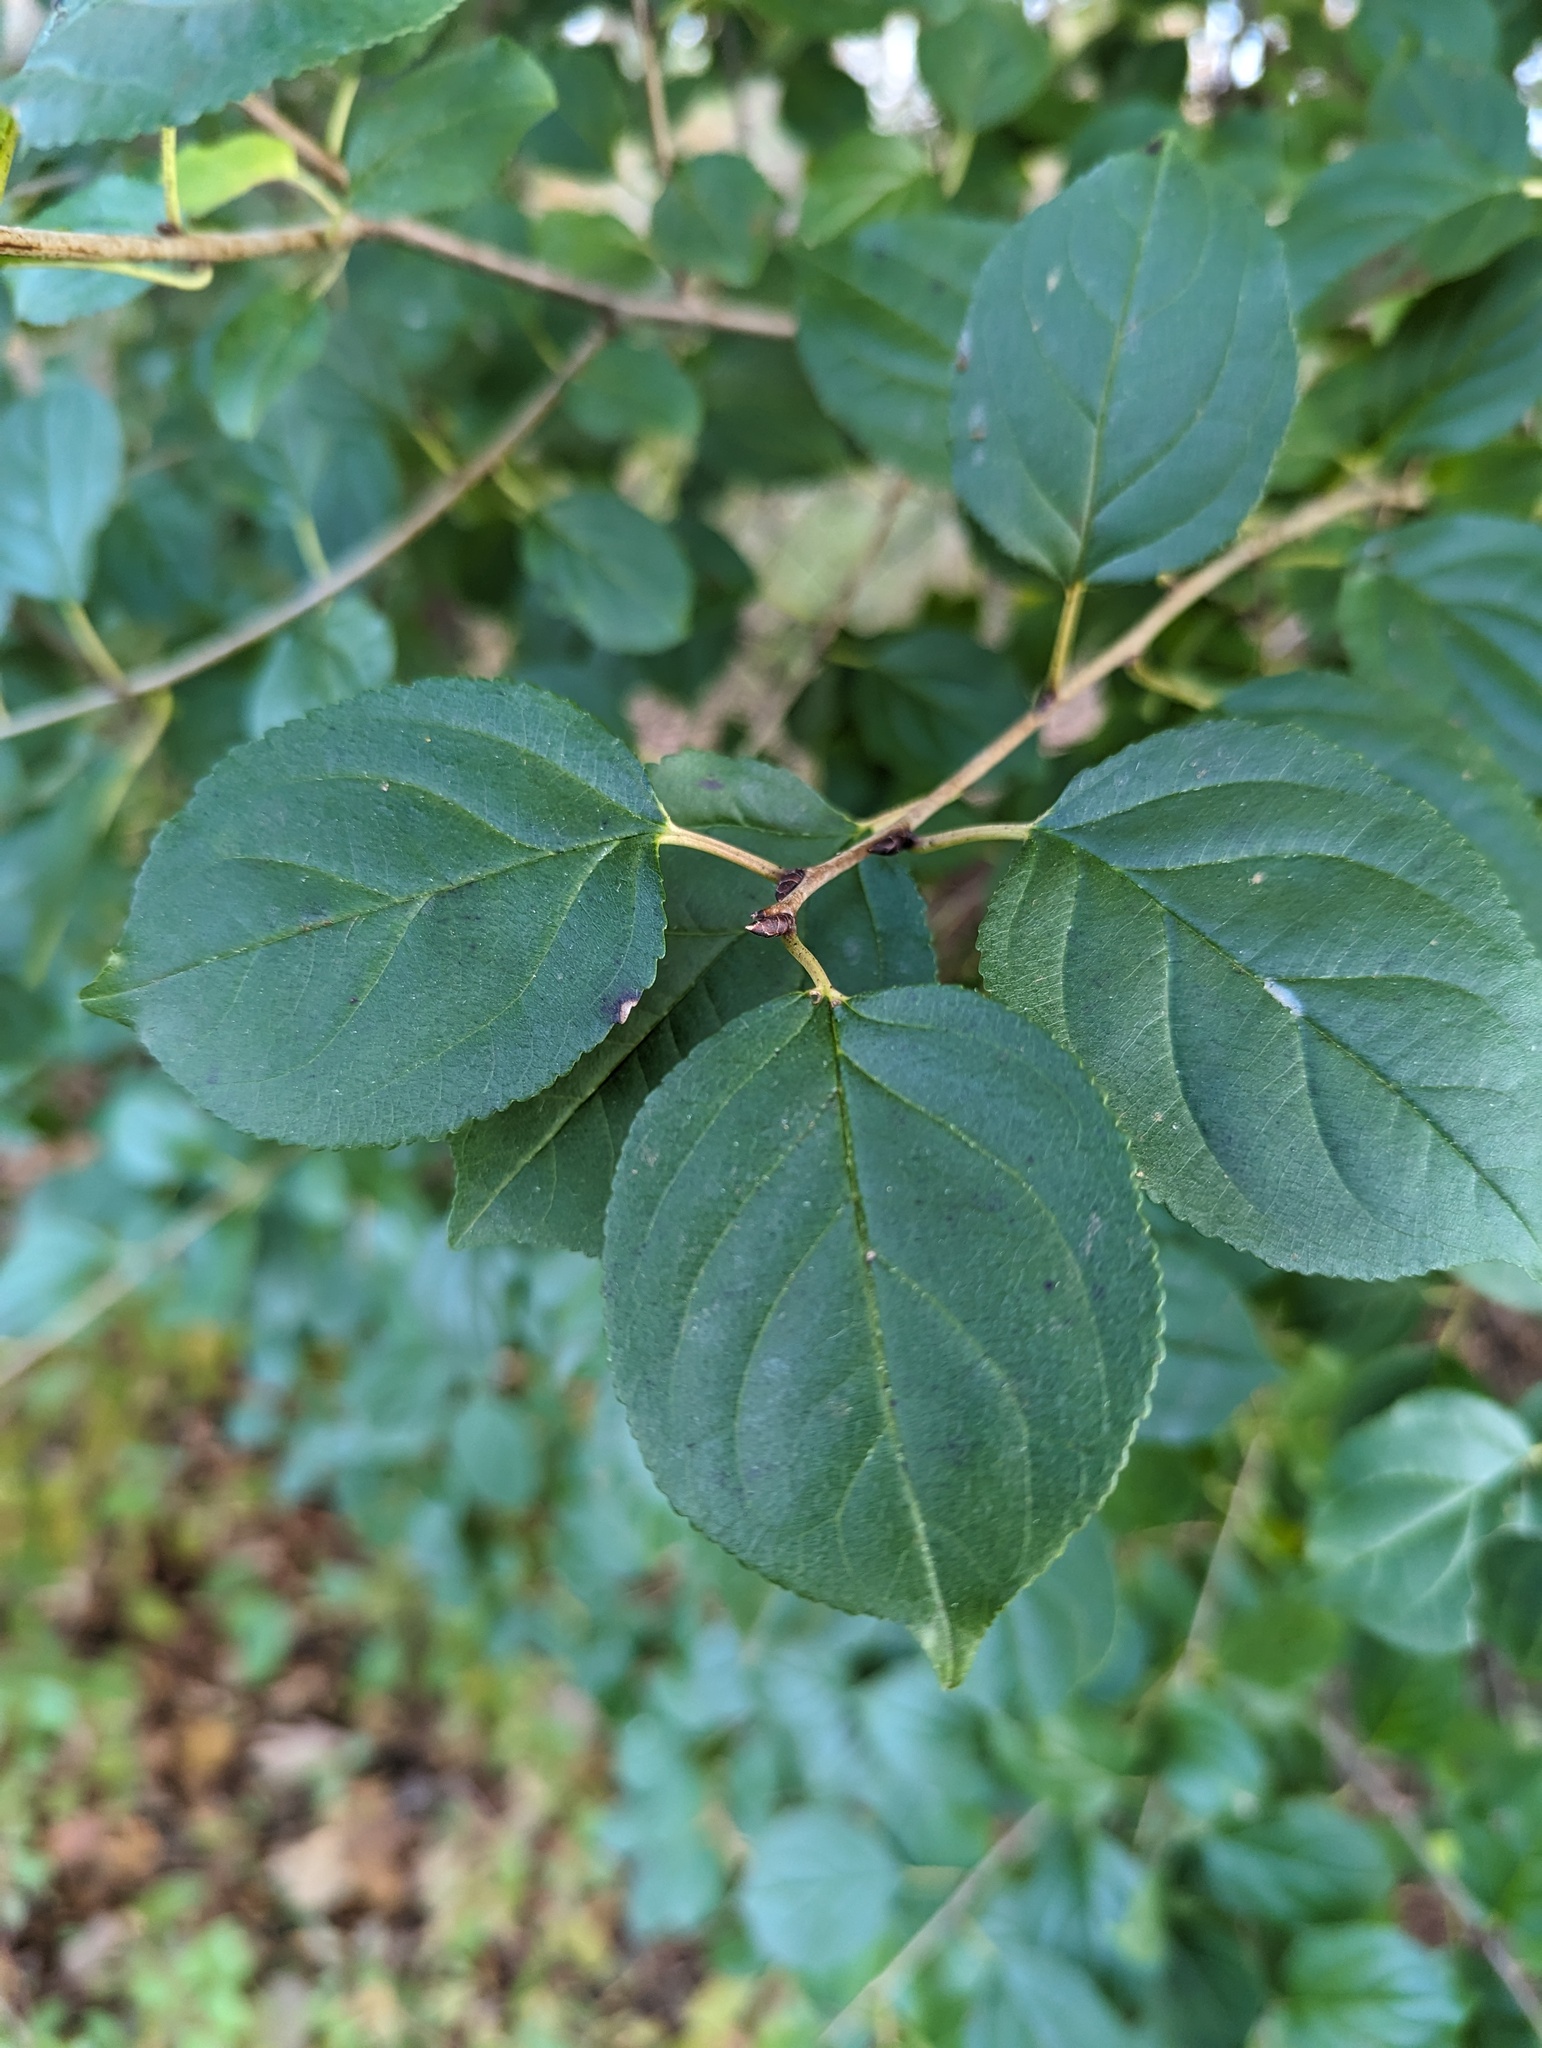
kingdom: Plantae
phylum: Tracheophyta
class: Magnoliopsida
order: Rosales
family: Rhamnaceae
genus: Rhamnus
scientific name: Rhamnus cathartica
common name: Common buckthorn
